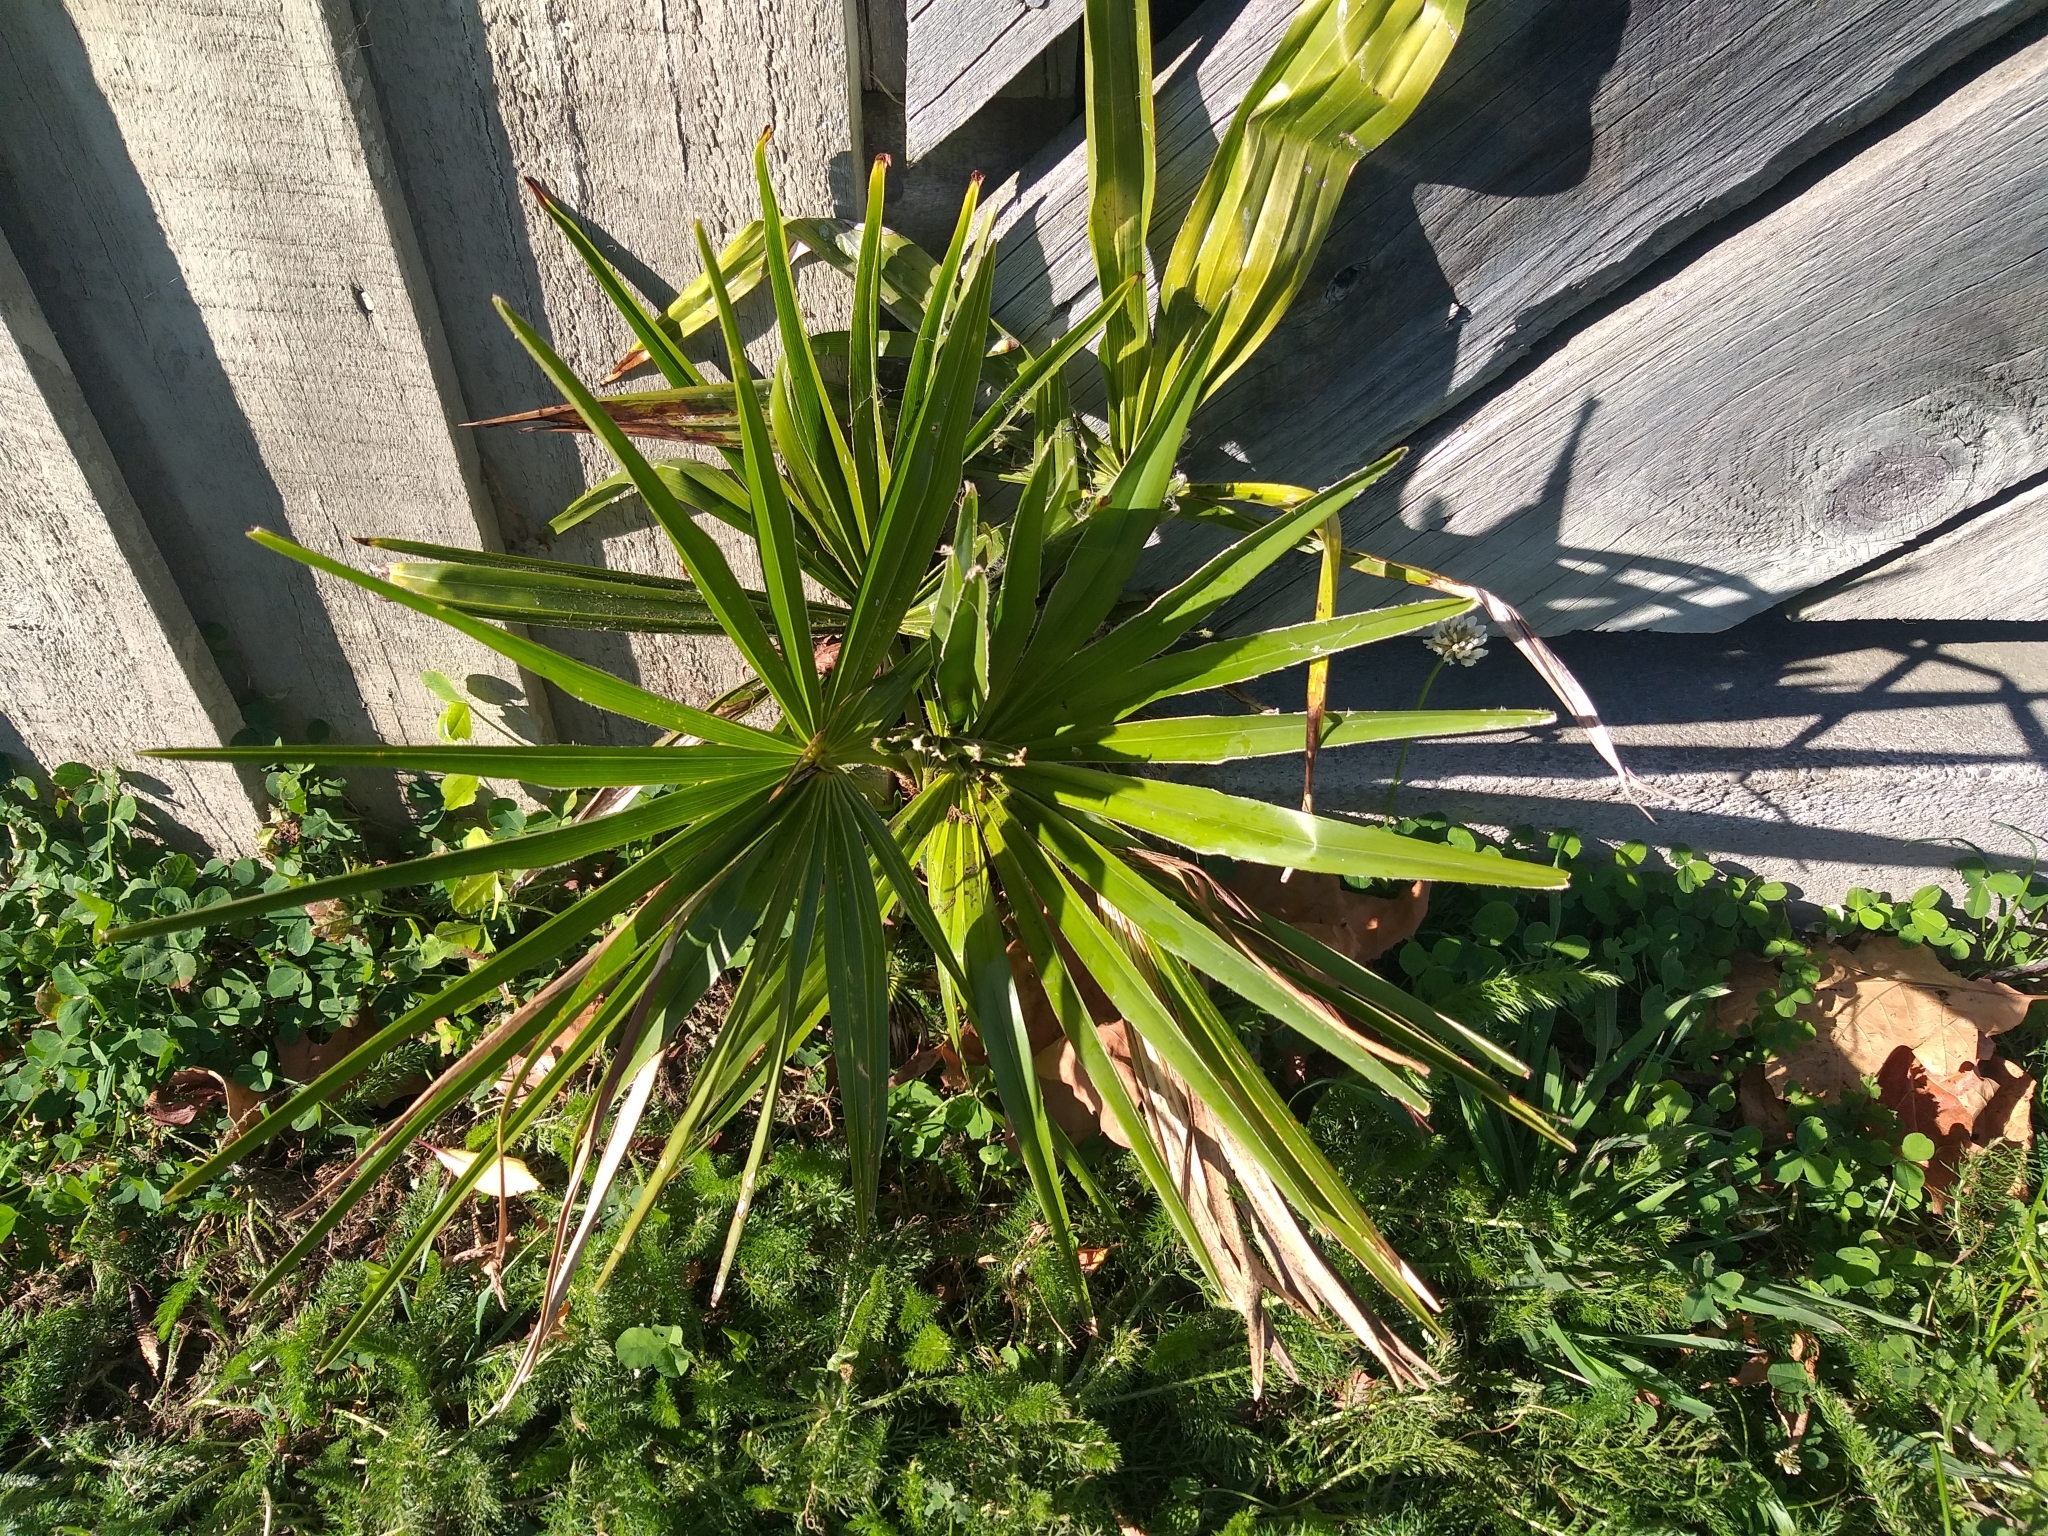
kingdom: Plantae
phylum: Tracheophyta
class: Liliopsida
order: Arecales
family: Arecaceae
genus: Trachycarpus
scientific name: Trachycarpus fortunei
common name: Chusan palm
